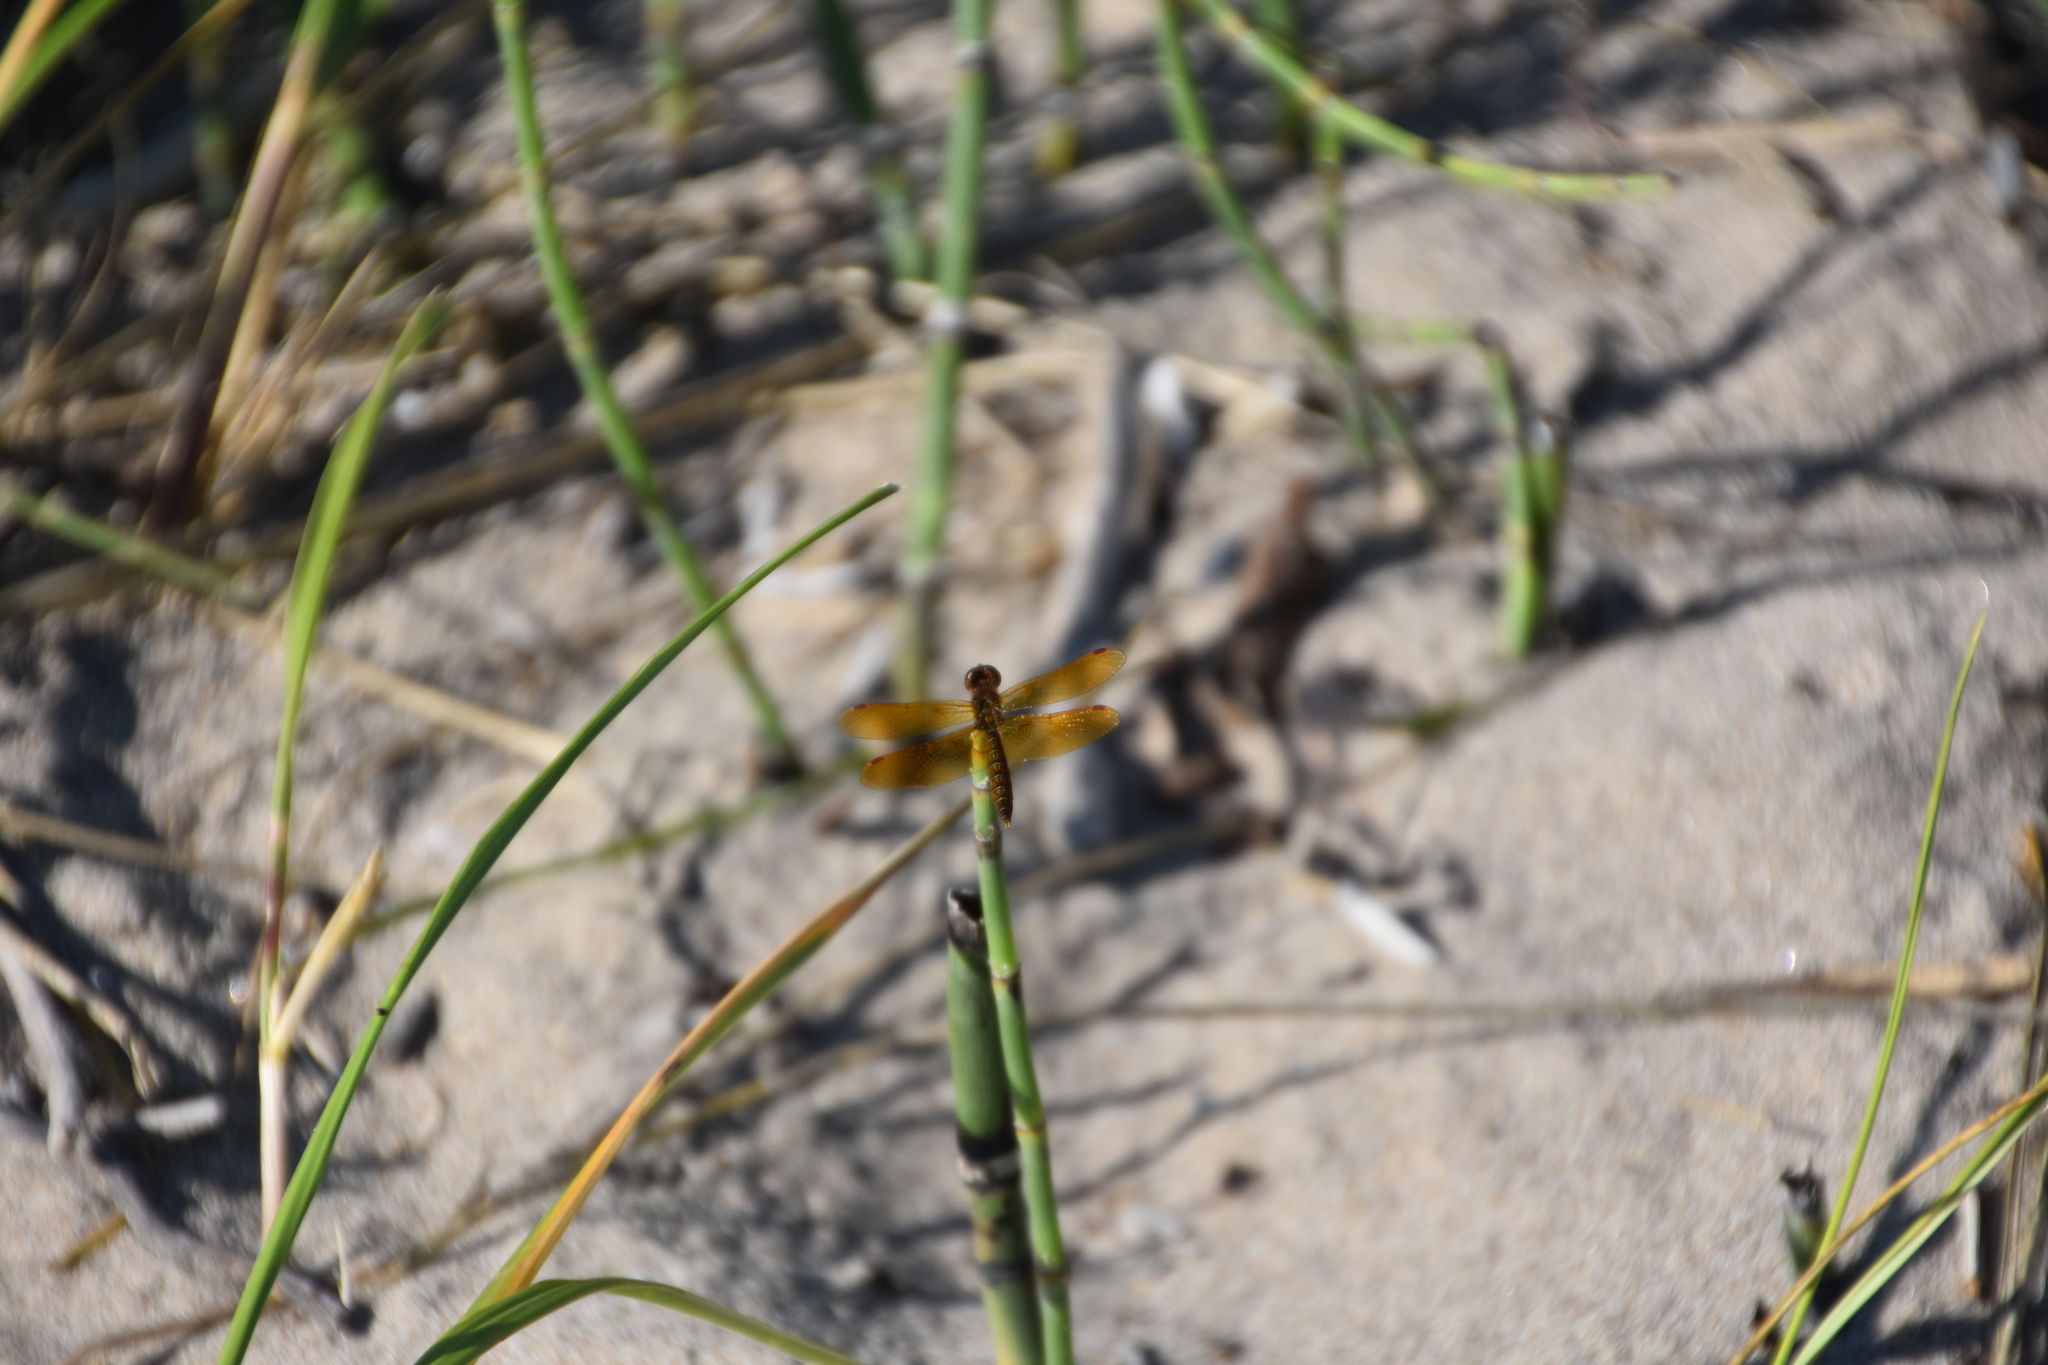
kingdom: Animalia
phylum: Arthropoda
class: Insecta
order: Odonata
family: Libellulidae
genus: Perithemis
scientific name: Perithemis tenera
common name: Eastern amberwing
